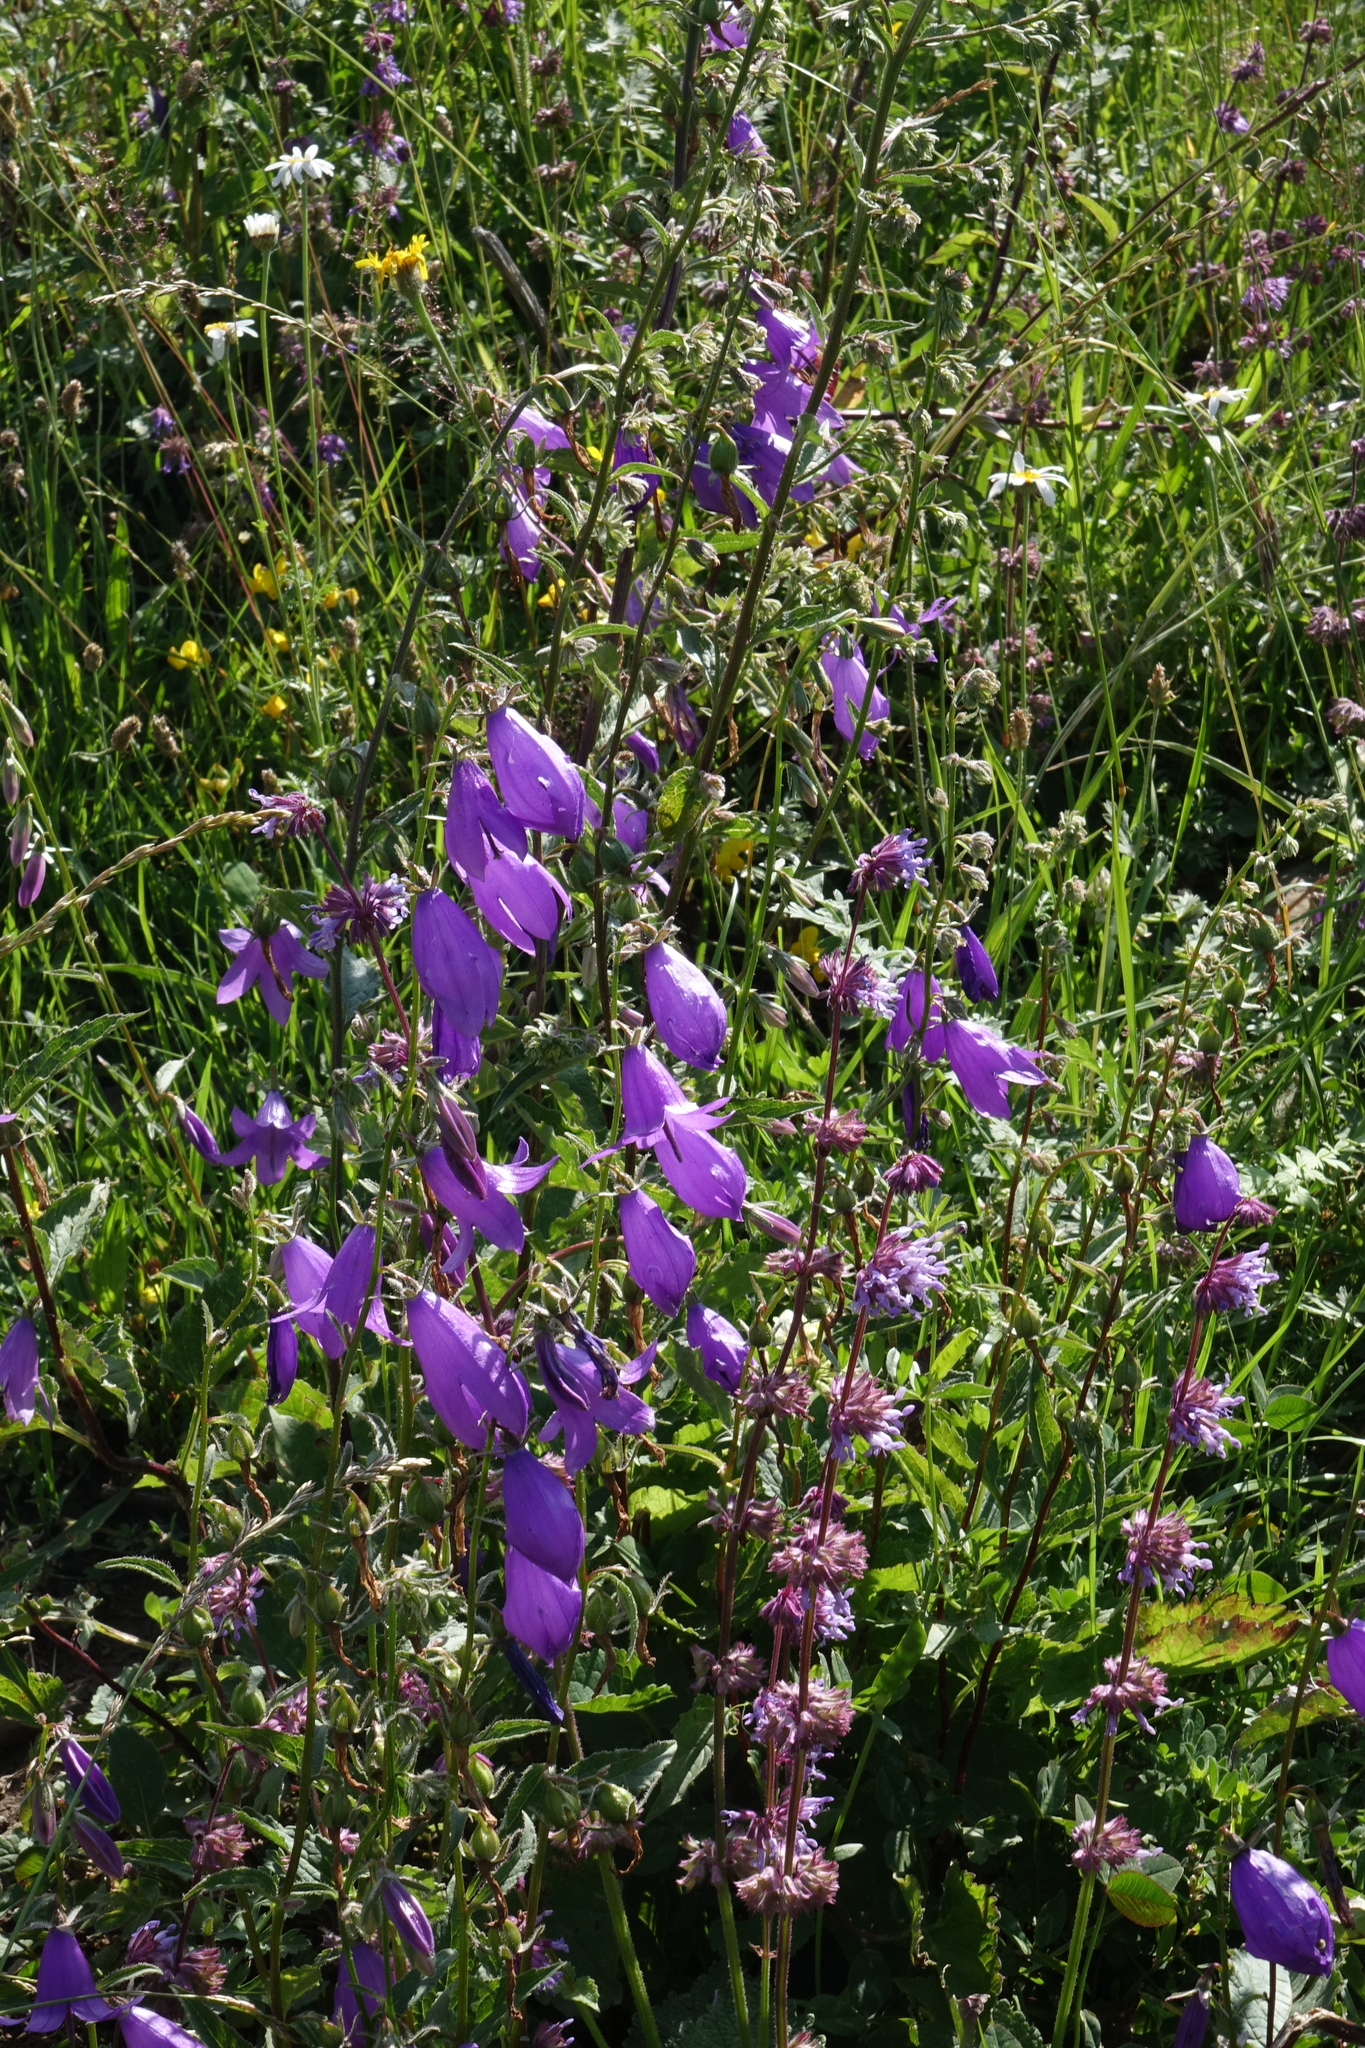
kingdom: Plantae
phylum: Tracheophyta
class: Magnoliopsida
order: Asterales
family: Campanulaceae
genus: Campanula
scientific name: Campanula rapunculoides
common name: Creeping bellflower
